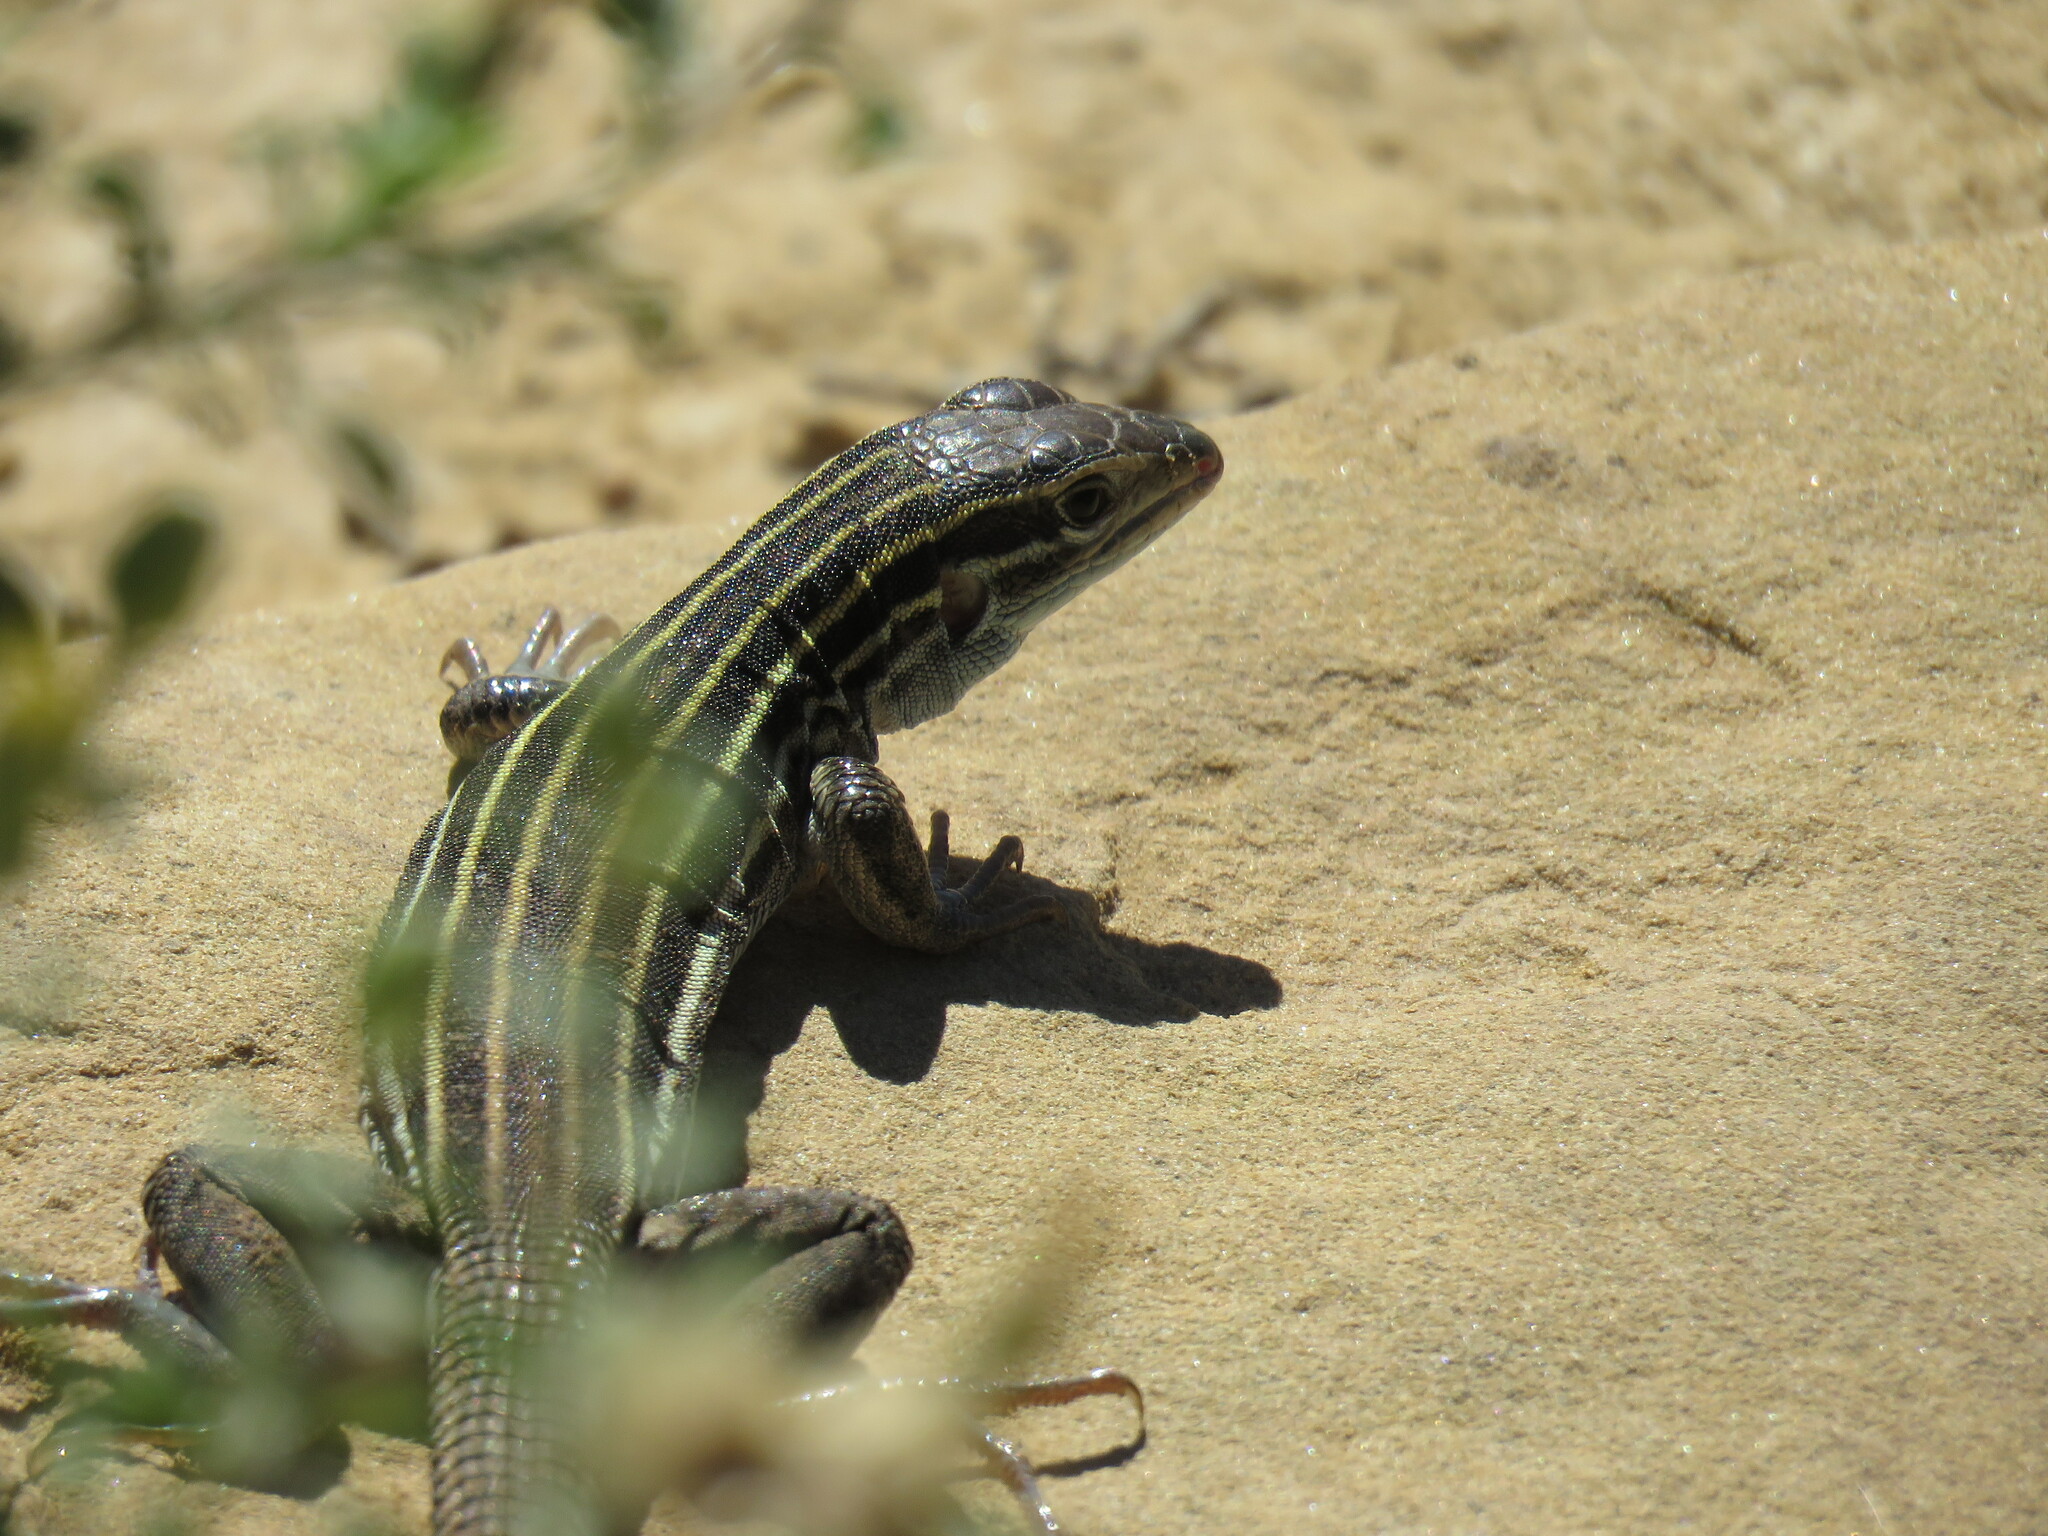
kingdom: Animalia
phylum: Chordata
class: Squamata
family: Teiidae
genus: Aspidoscelis
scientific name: Aspidoscelis velox
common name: Plateau striped whiptail
